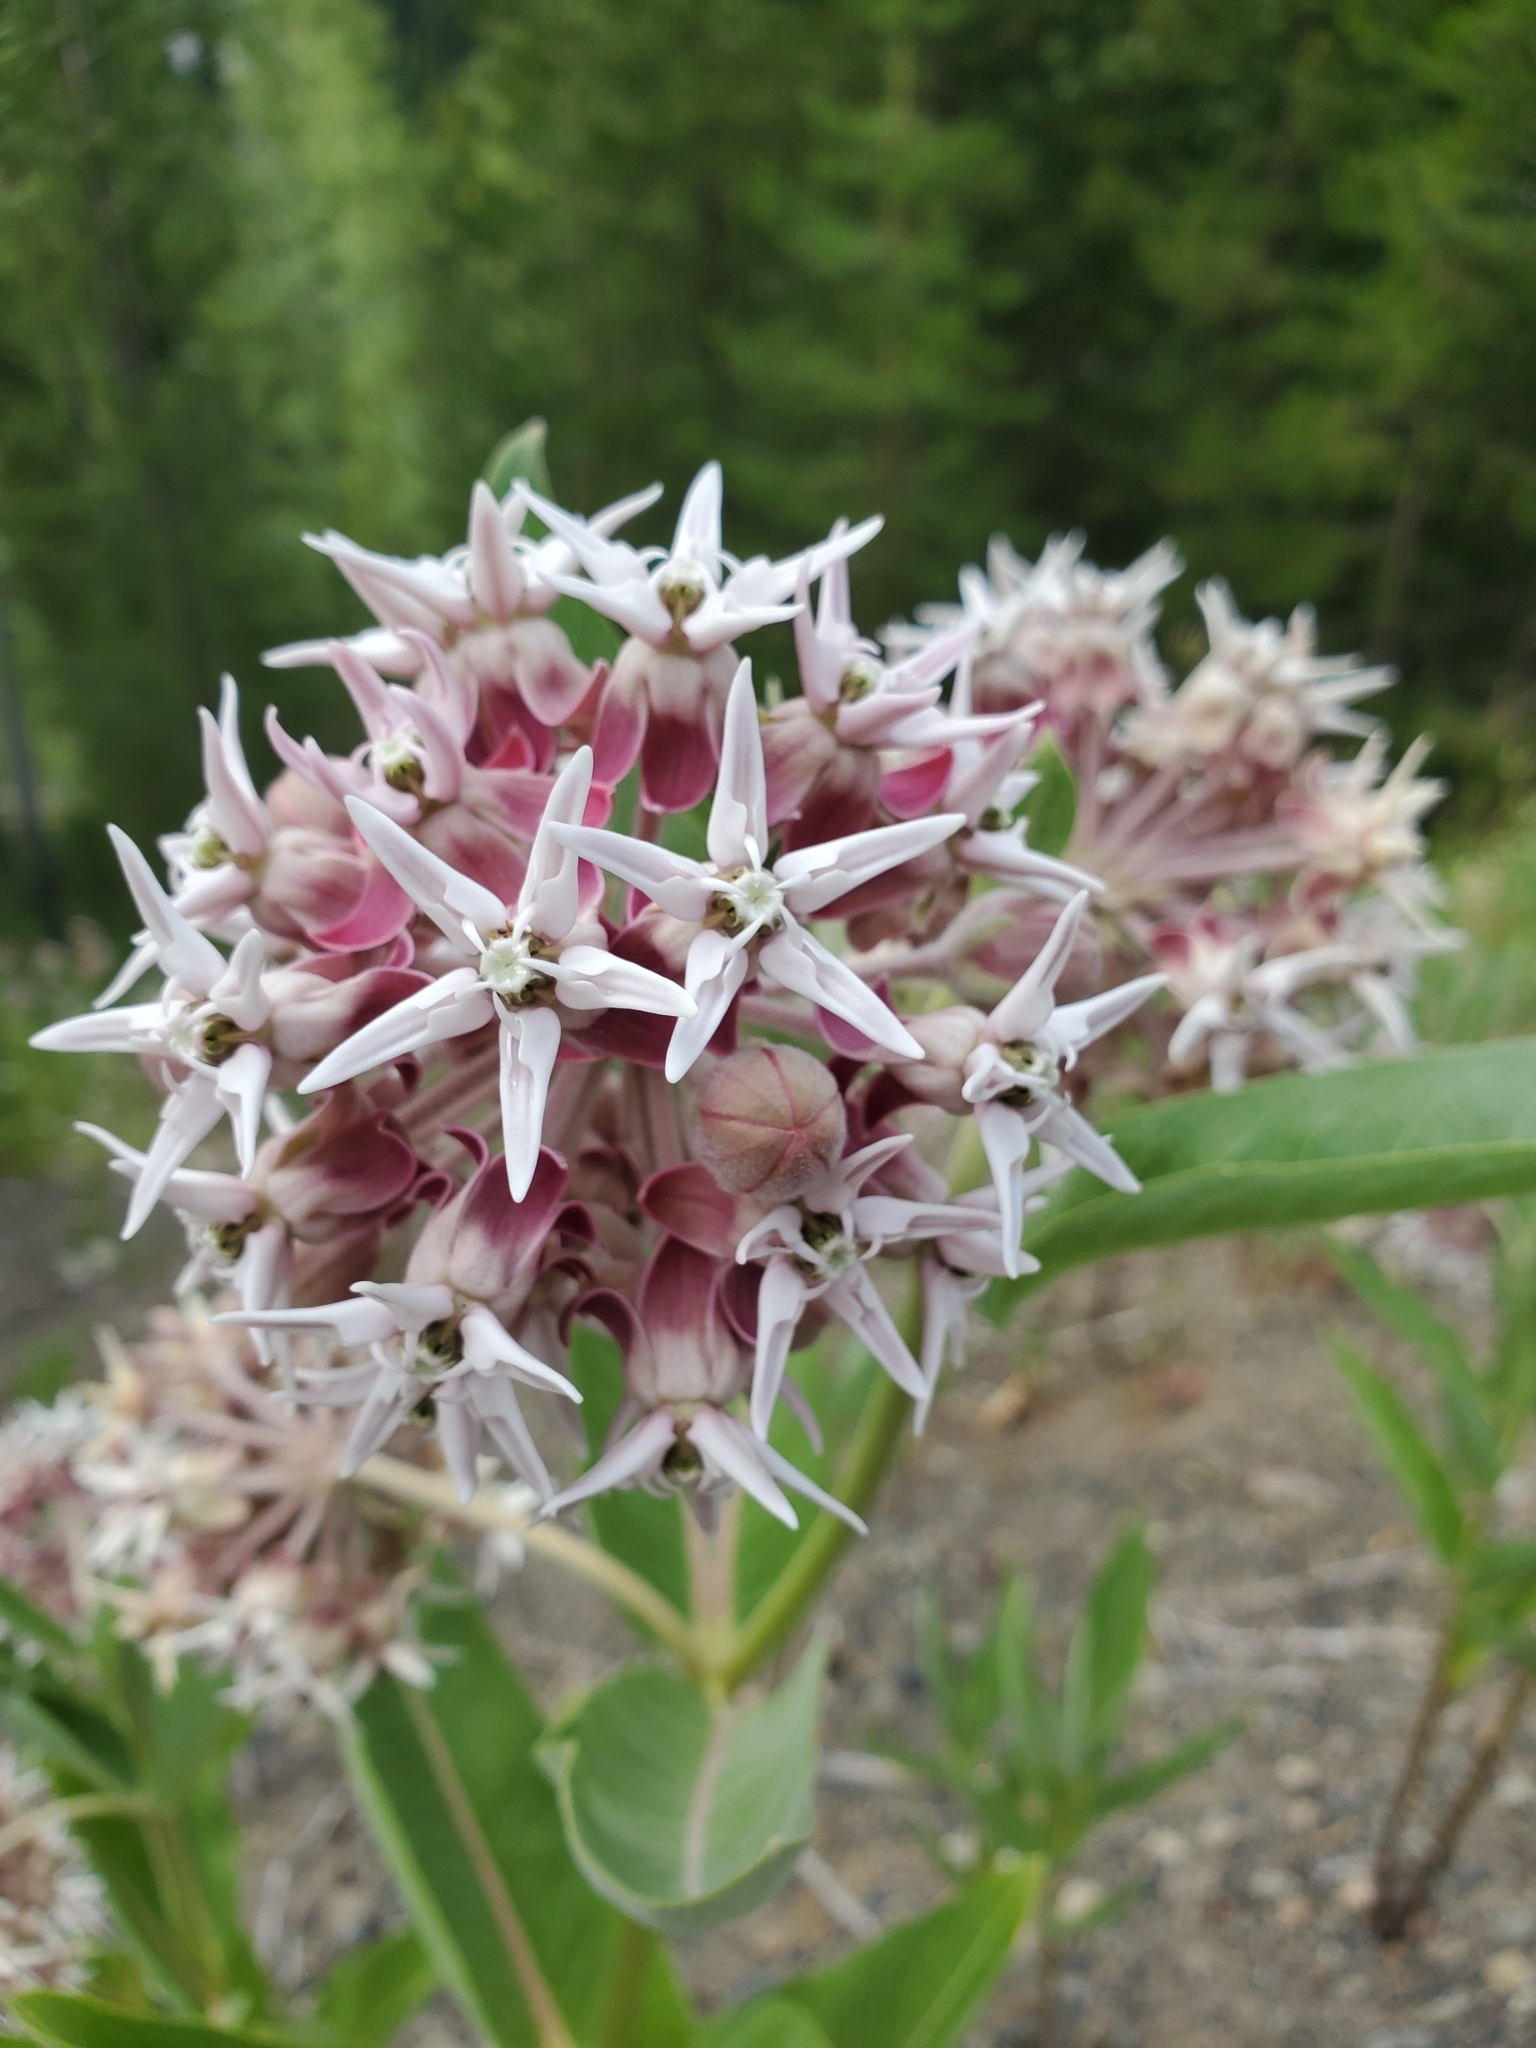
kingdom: Plantae
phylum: Tracheophyta
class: Magnoliopsida
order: Gentianales
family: Apocynaceae
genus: Asclepias
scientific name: Asclepias speciosa
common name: Showy milkweed
